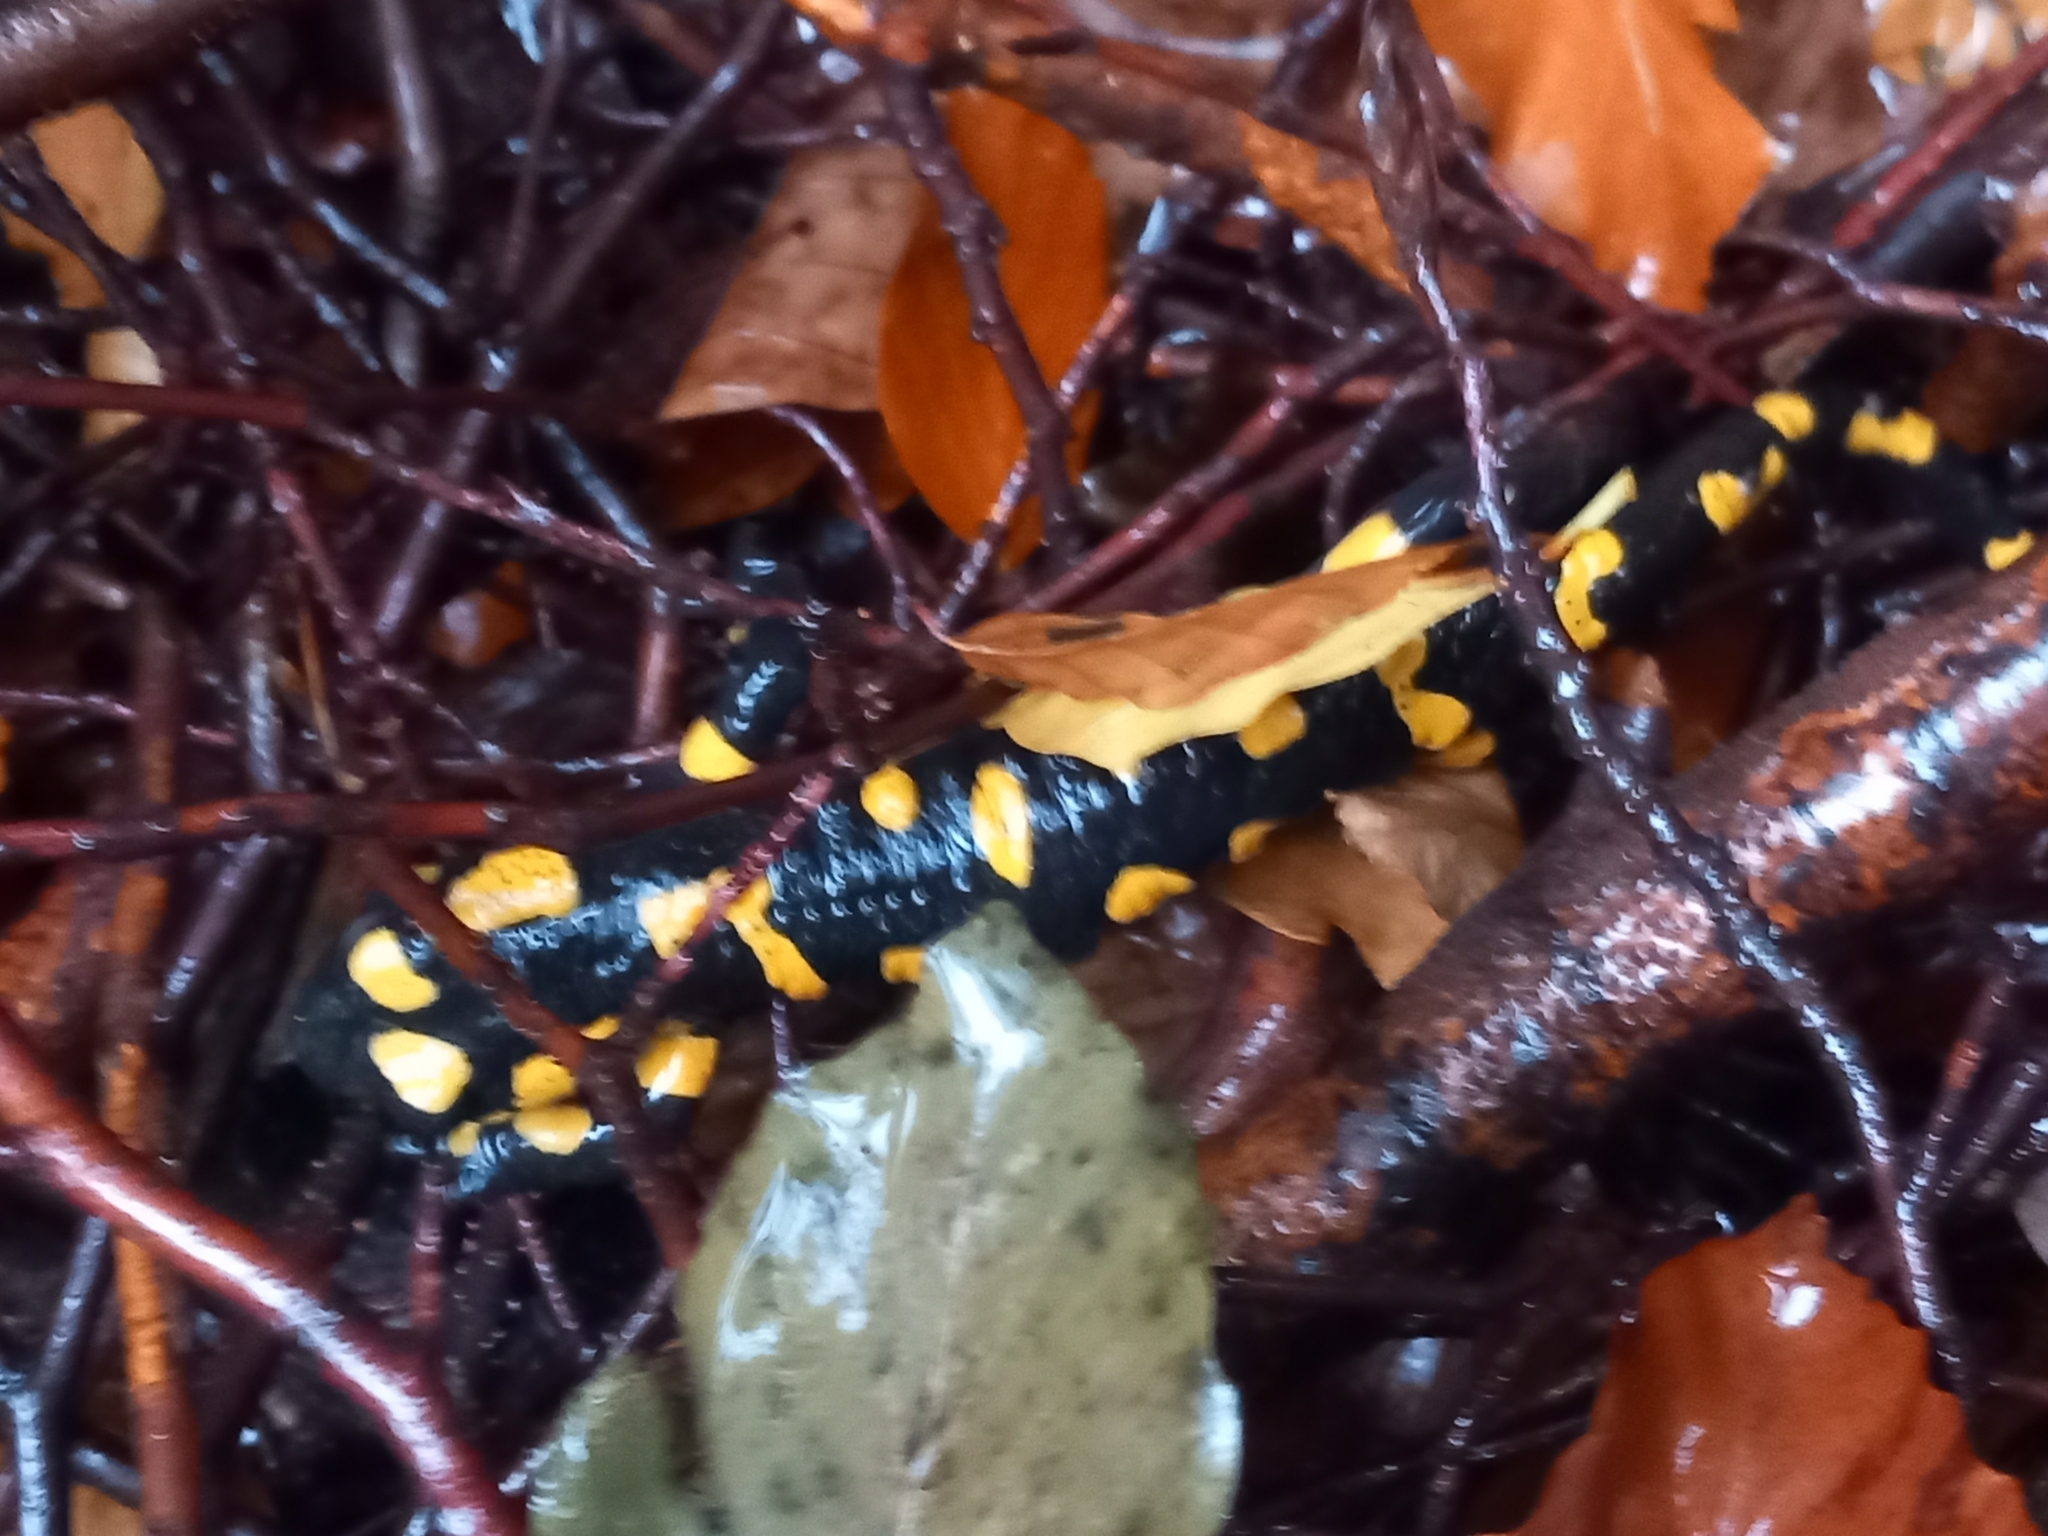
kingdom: Animalia
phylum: Chordata
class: Amphibia
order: Caudata
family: Salamandridae
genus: Salamandra
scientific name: Salamandra salamandra
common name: Fire salamander
